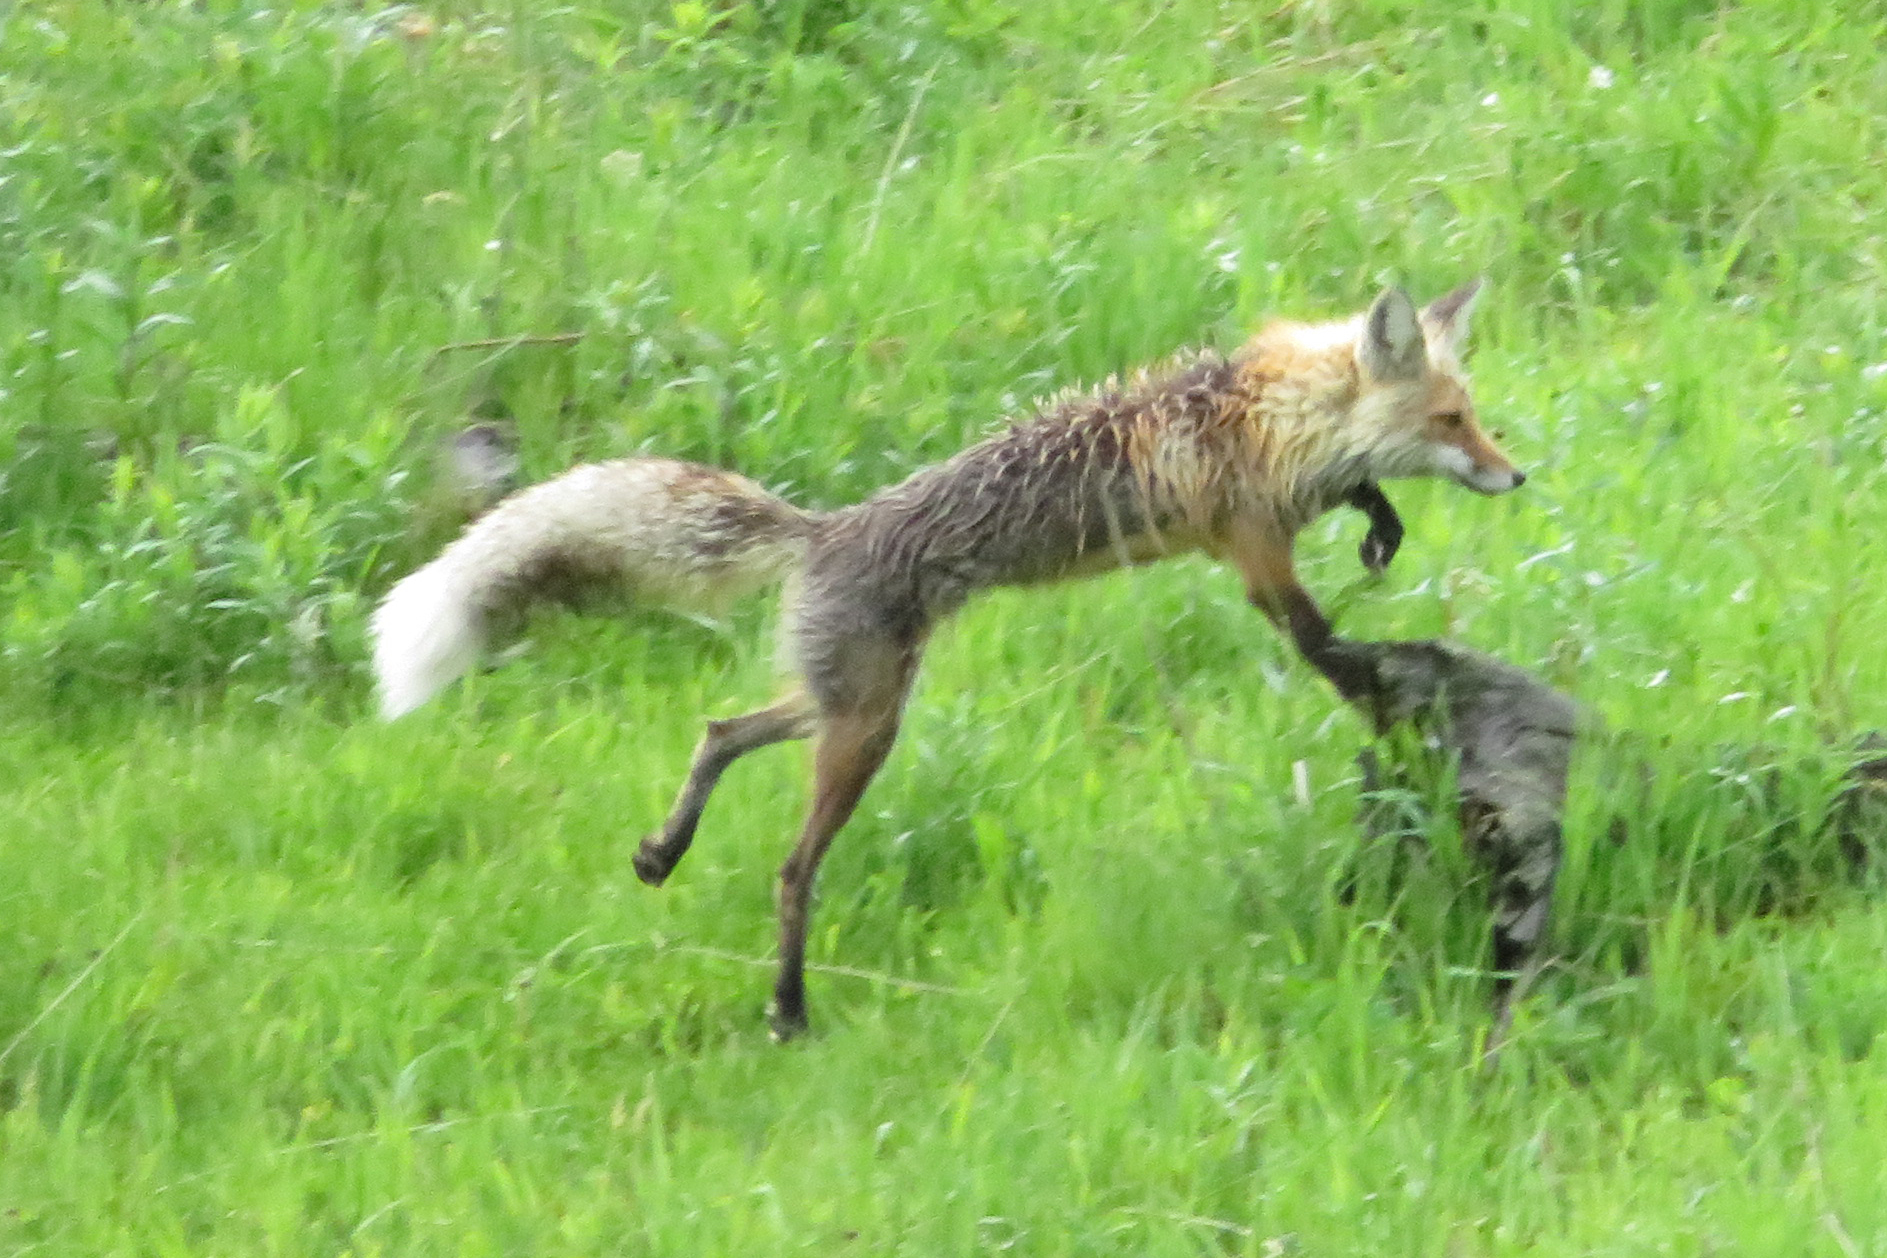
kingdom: Animalia
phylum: Chordata
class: Mammalia
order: Carnivora
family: Canidae
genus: Vulpes
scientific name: Vulpes vulpes
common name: Red fox
